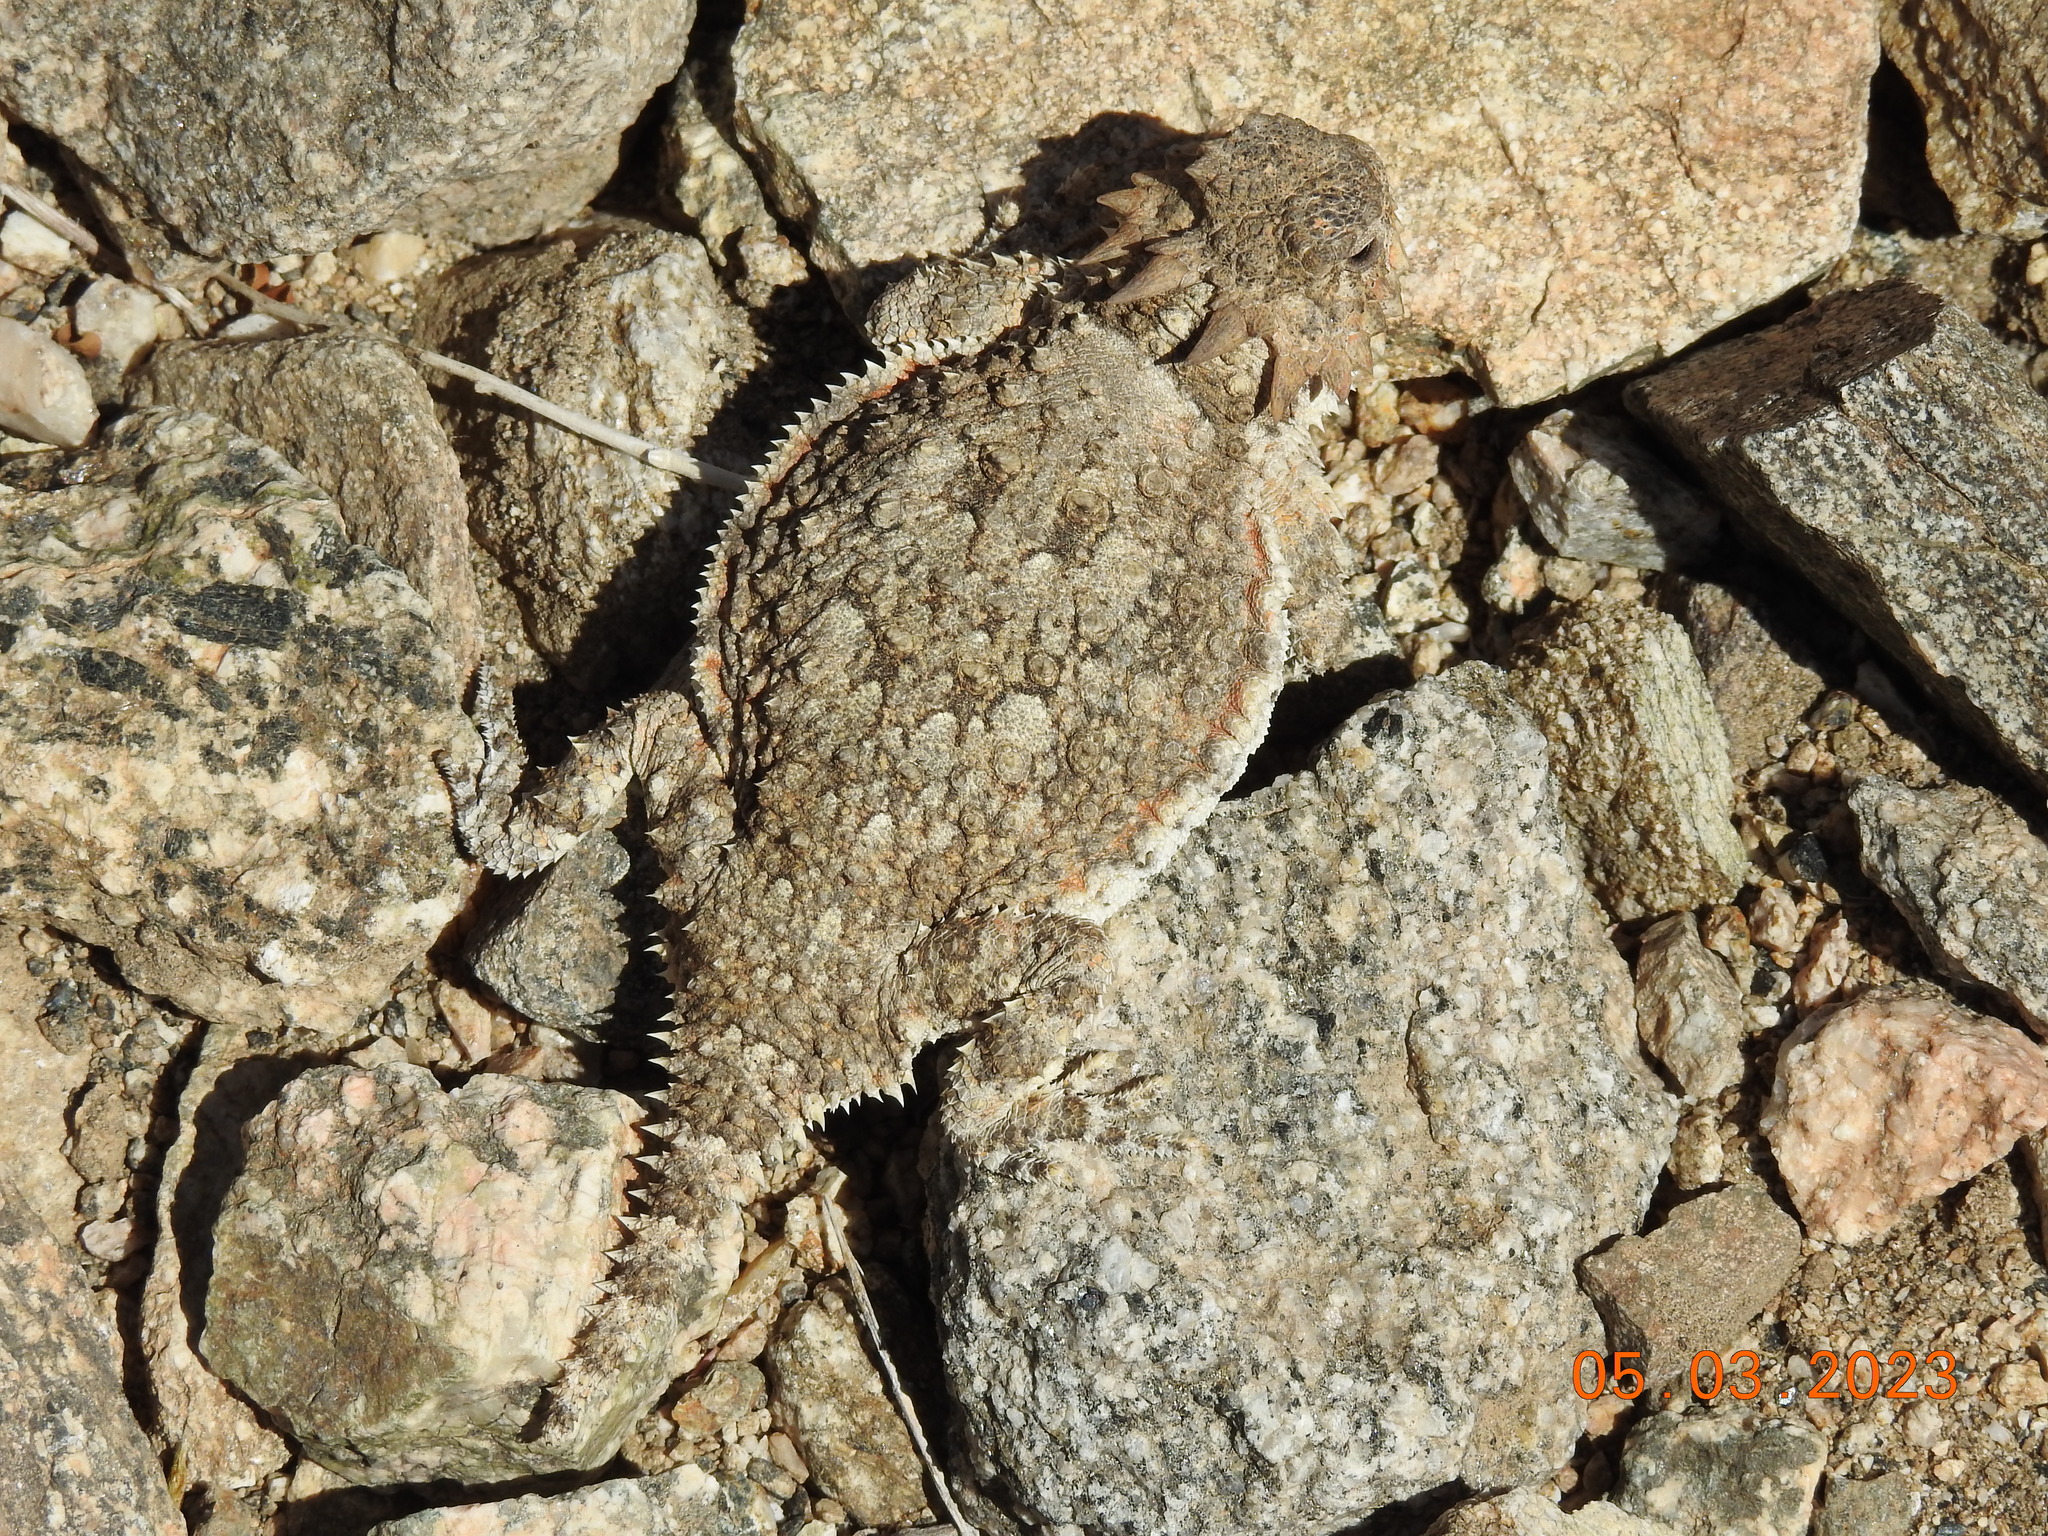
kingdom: Animalia
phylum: Chordata
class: Squamata
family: Phrynosomatidae
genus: Phrynosoma
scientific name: Phrynosoma platyrhinos
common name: Desert horned lizard
